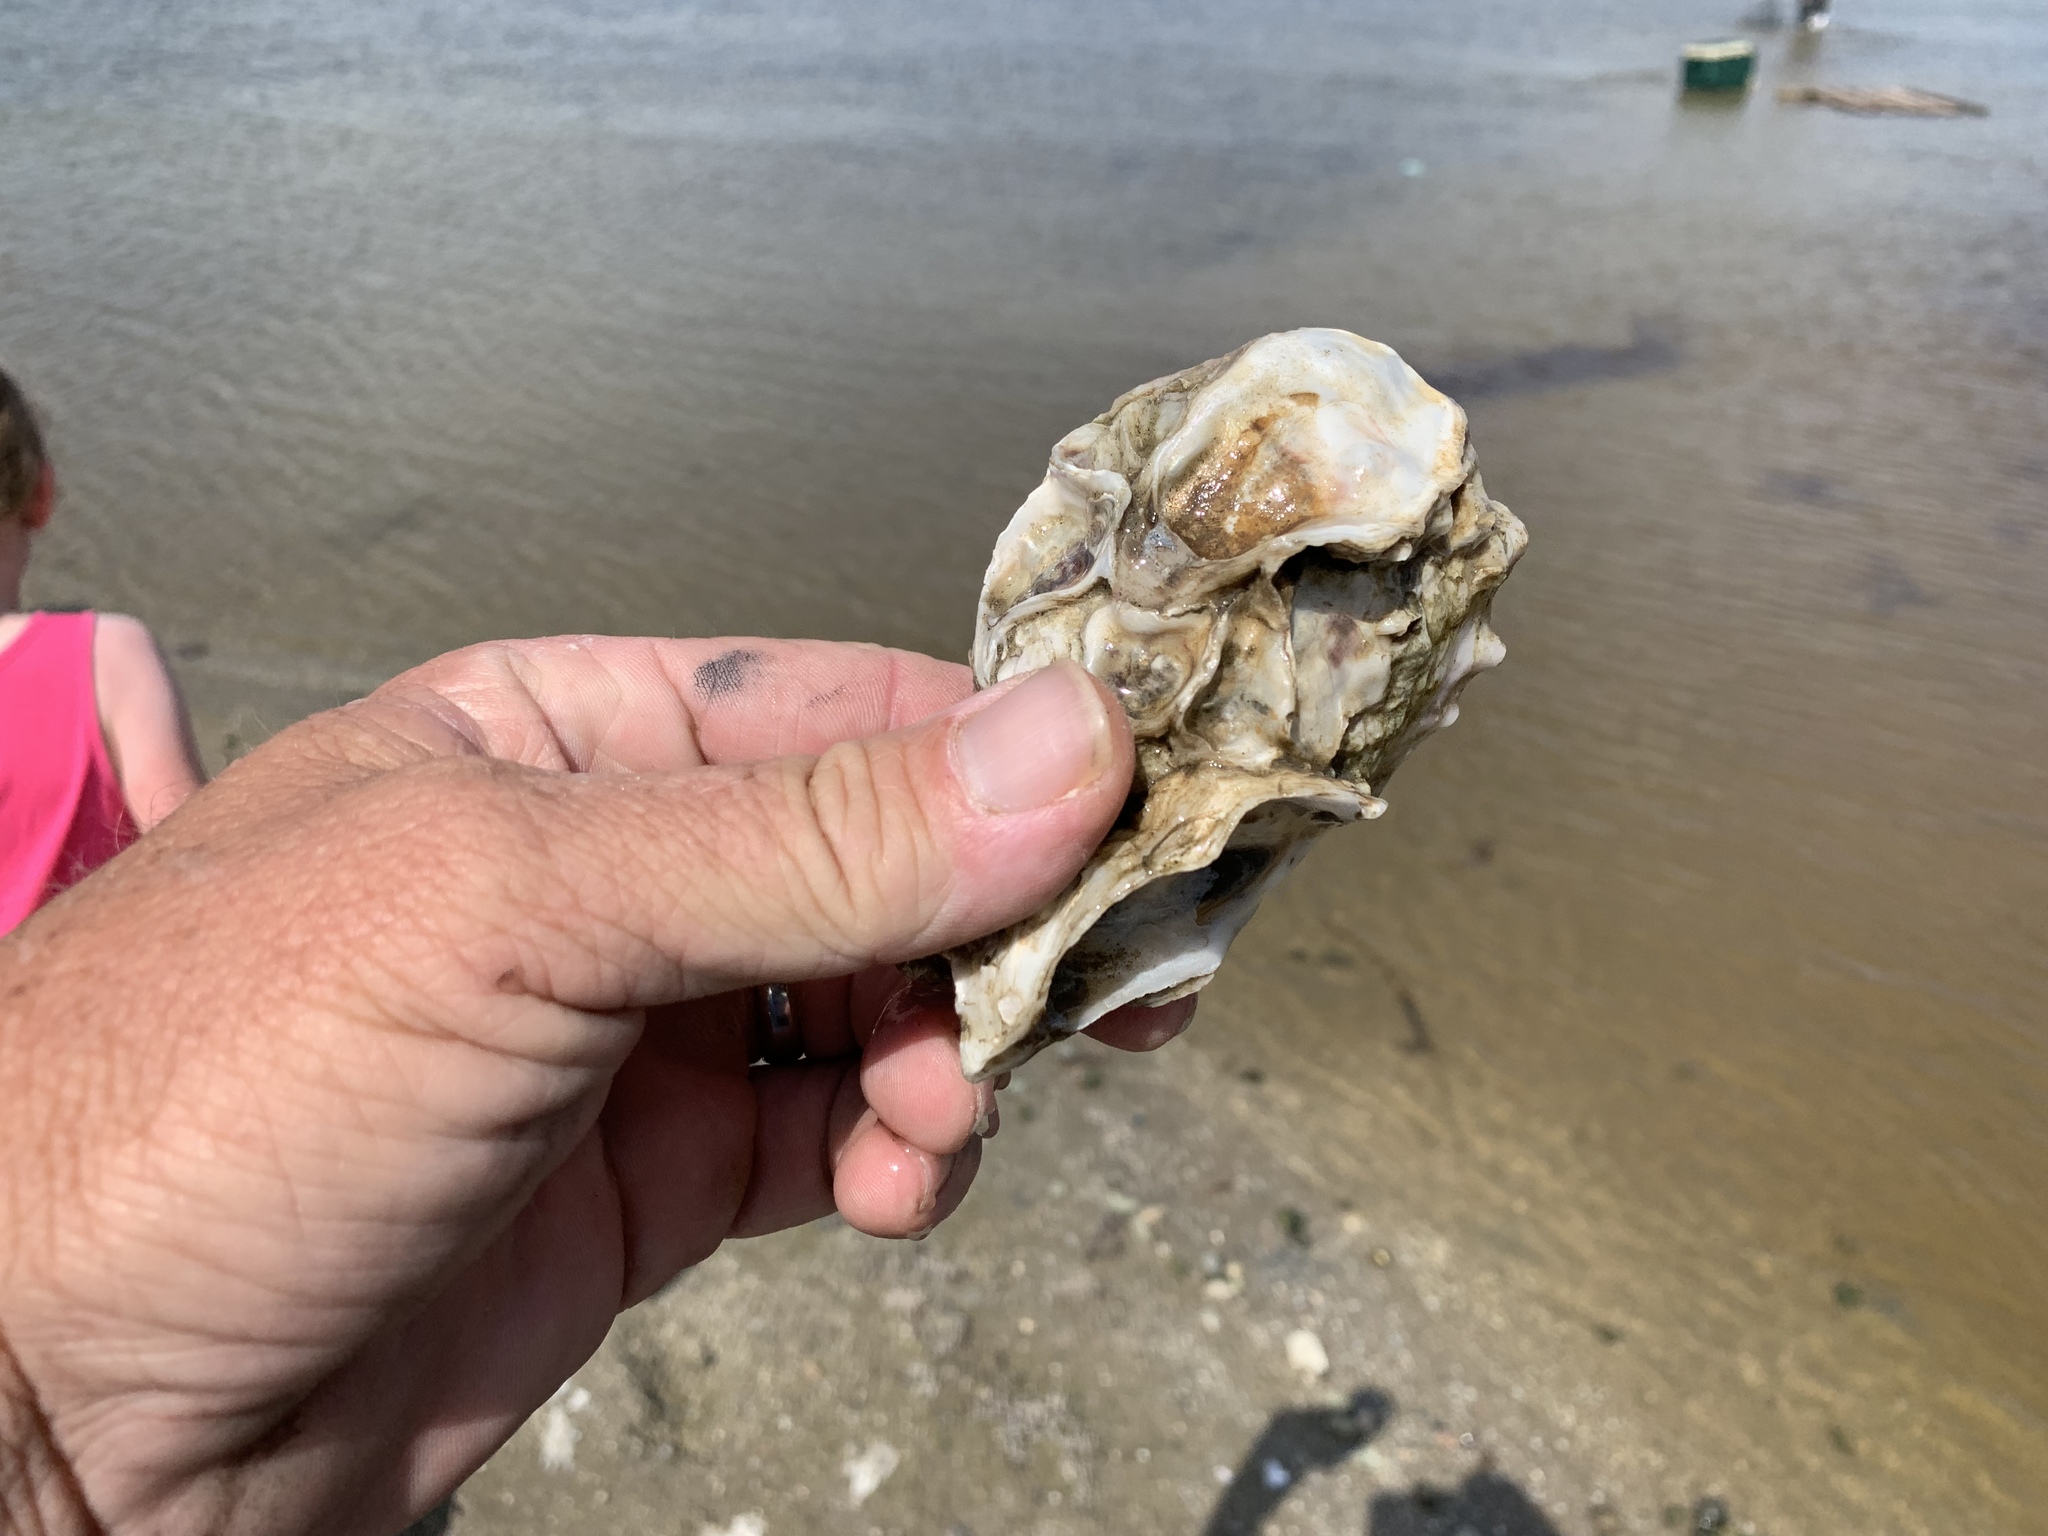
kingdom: Animalia
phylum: Mollusca
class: Bivalvia
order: Ostreida
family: Ostreidae
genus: Crassostrea
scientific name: Crassostrea virginica
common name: American oyster
